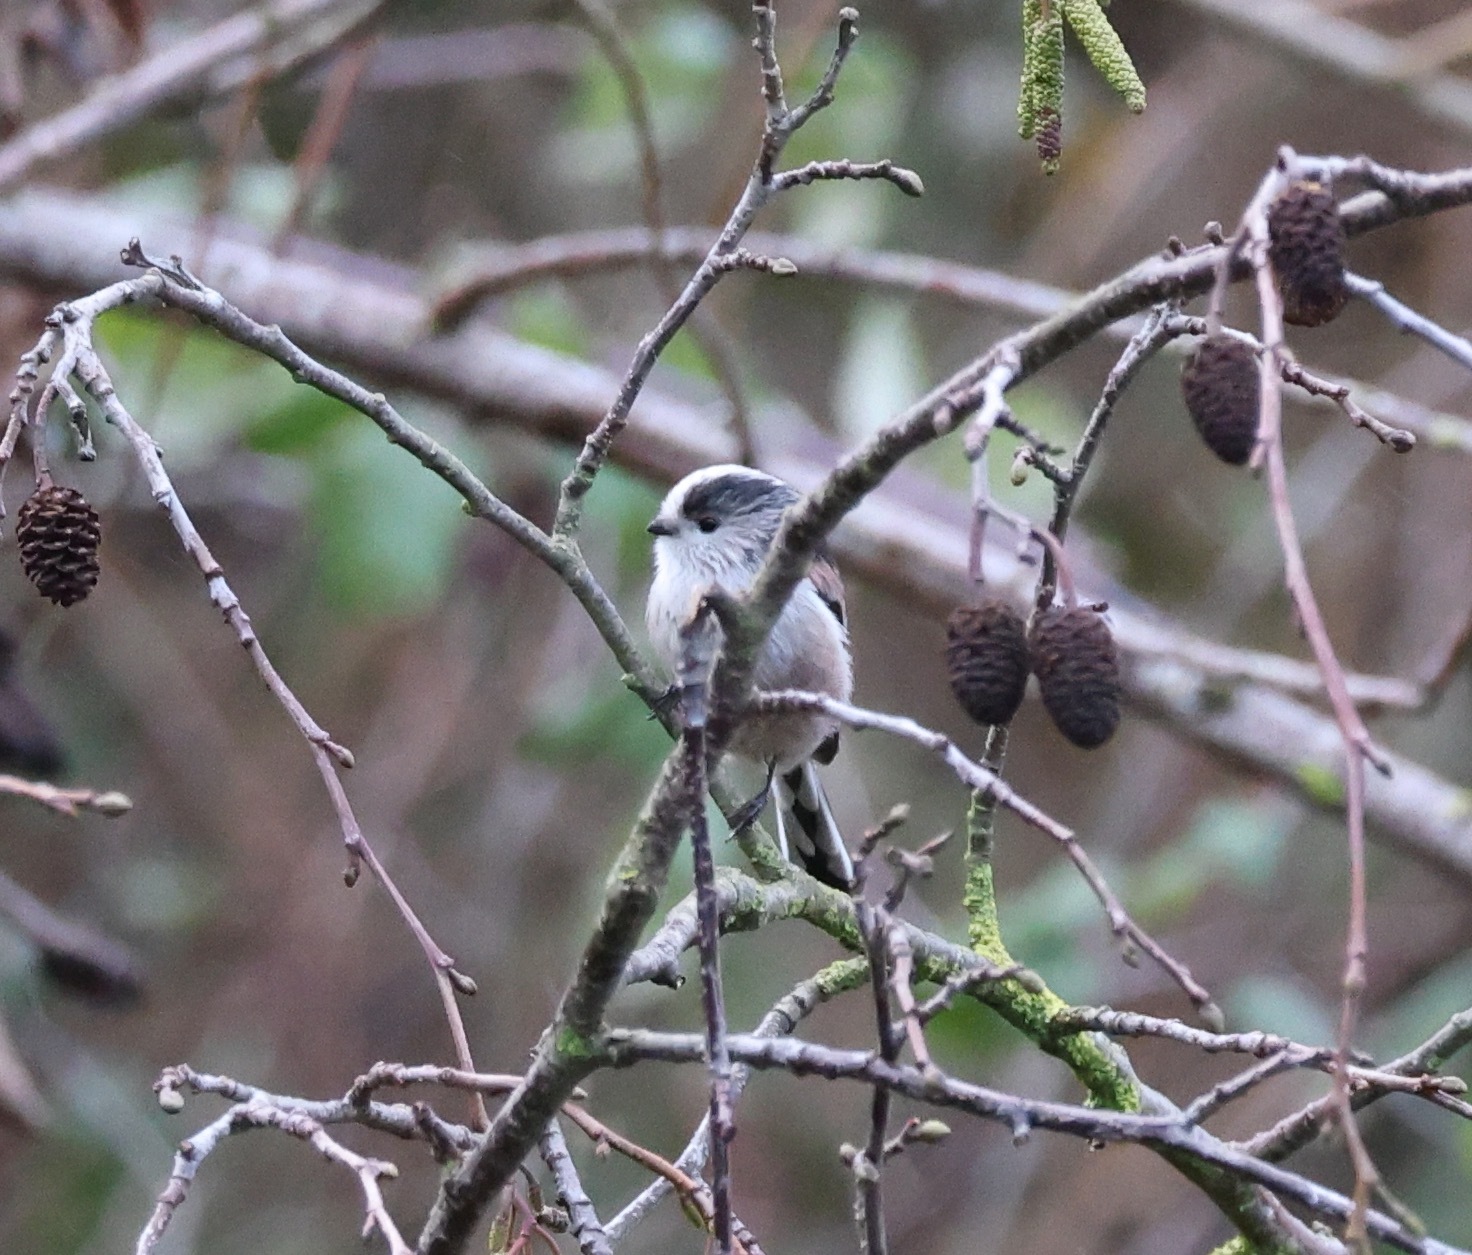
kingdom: Animalia
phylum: Chordata
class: Aves
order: Passeriformes
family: Aegithalidae
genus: Aegithalos
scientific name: Aegithalos caudatus
